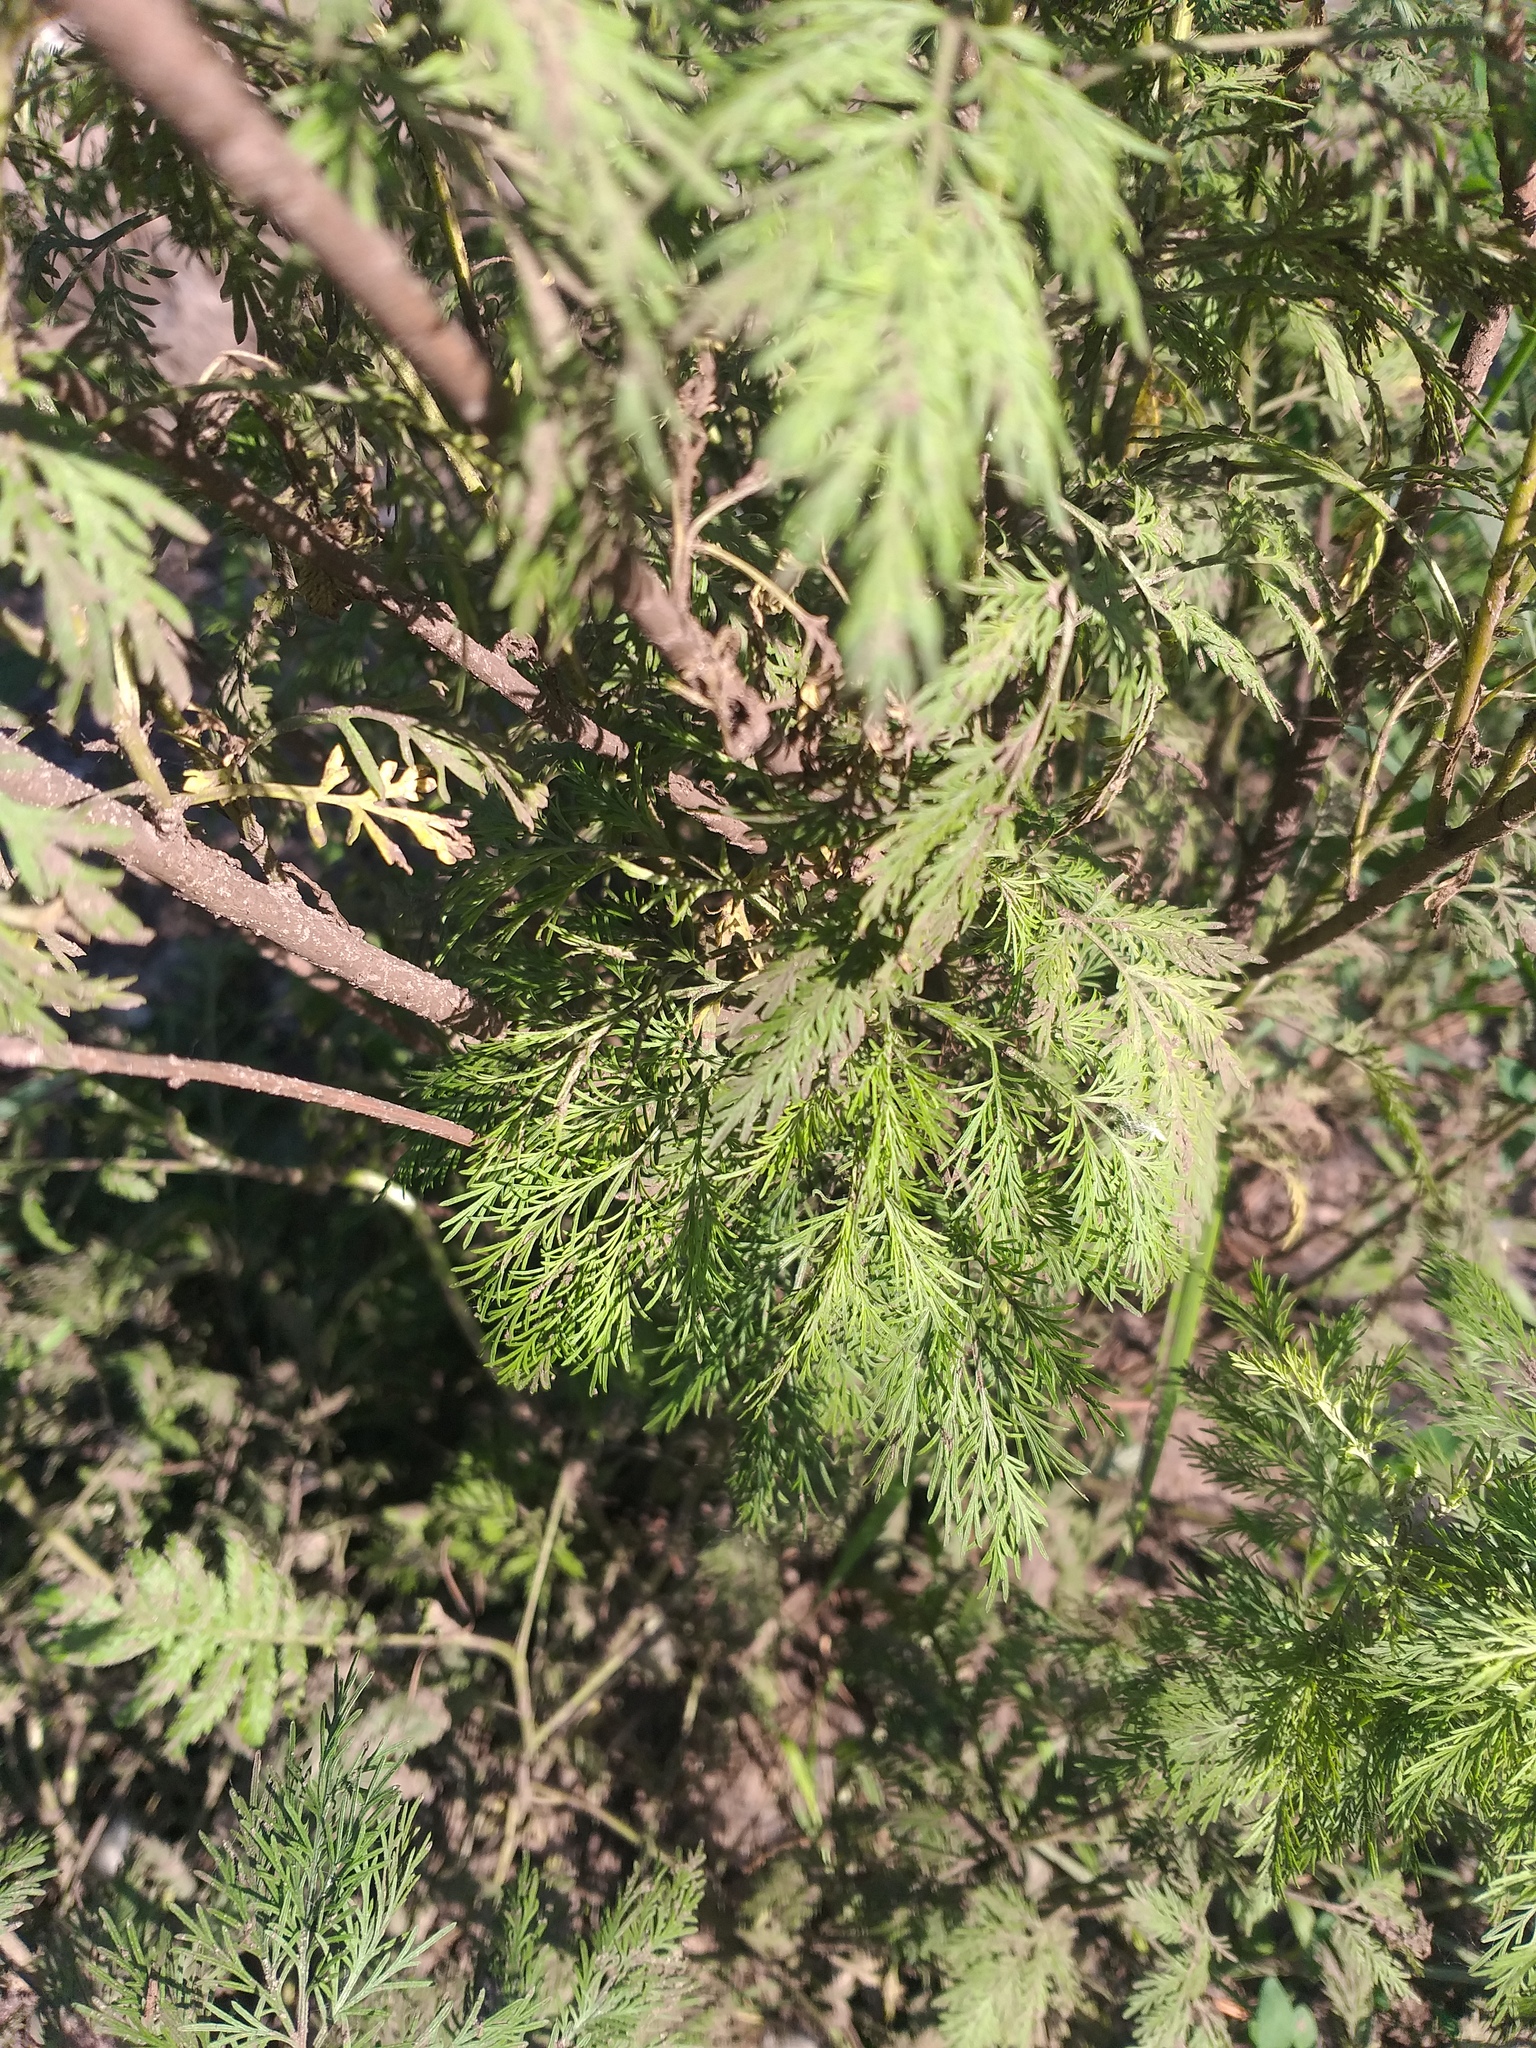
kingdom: Plantae
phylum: Tracheophyta
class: Magnoliopsida
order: Asterales
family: Asteraceae
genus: Artemisia
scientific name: Artemisia abrotanum
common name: Southernwood
